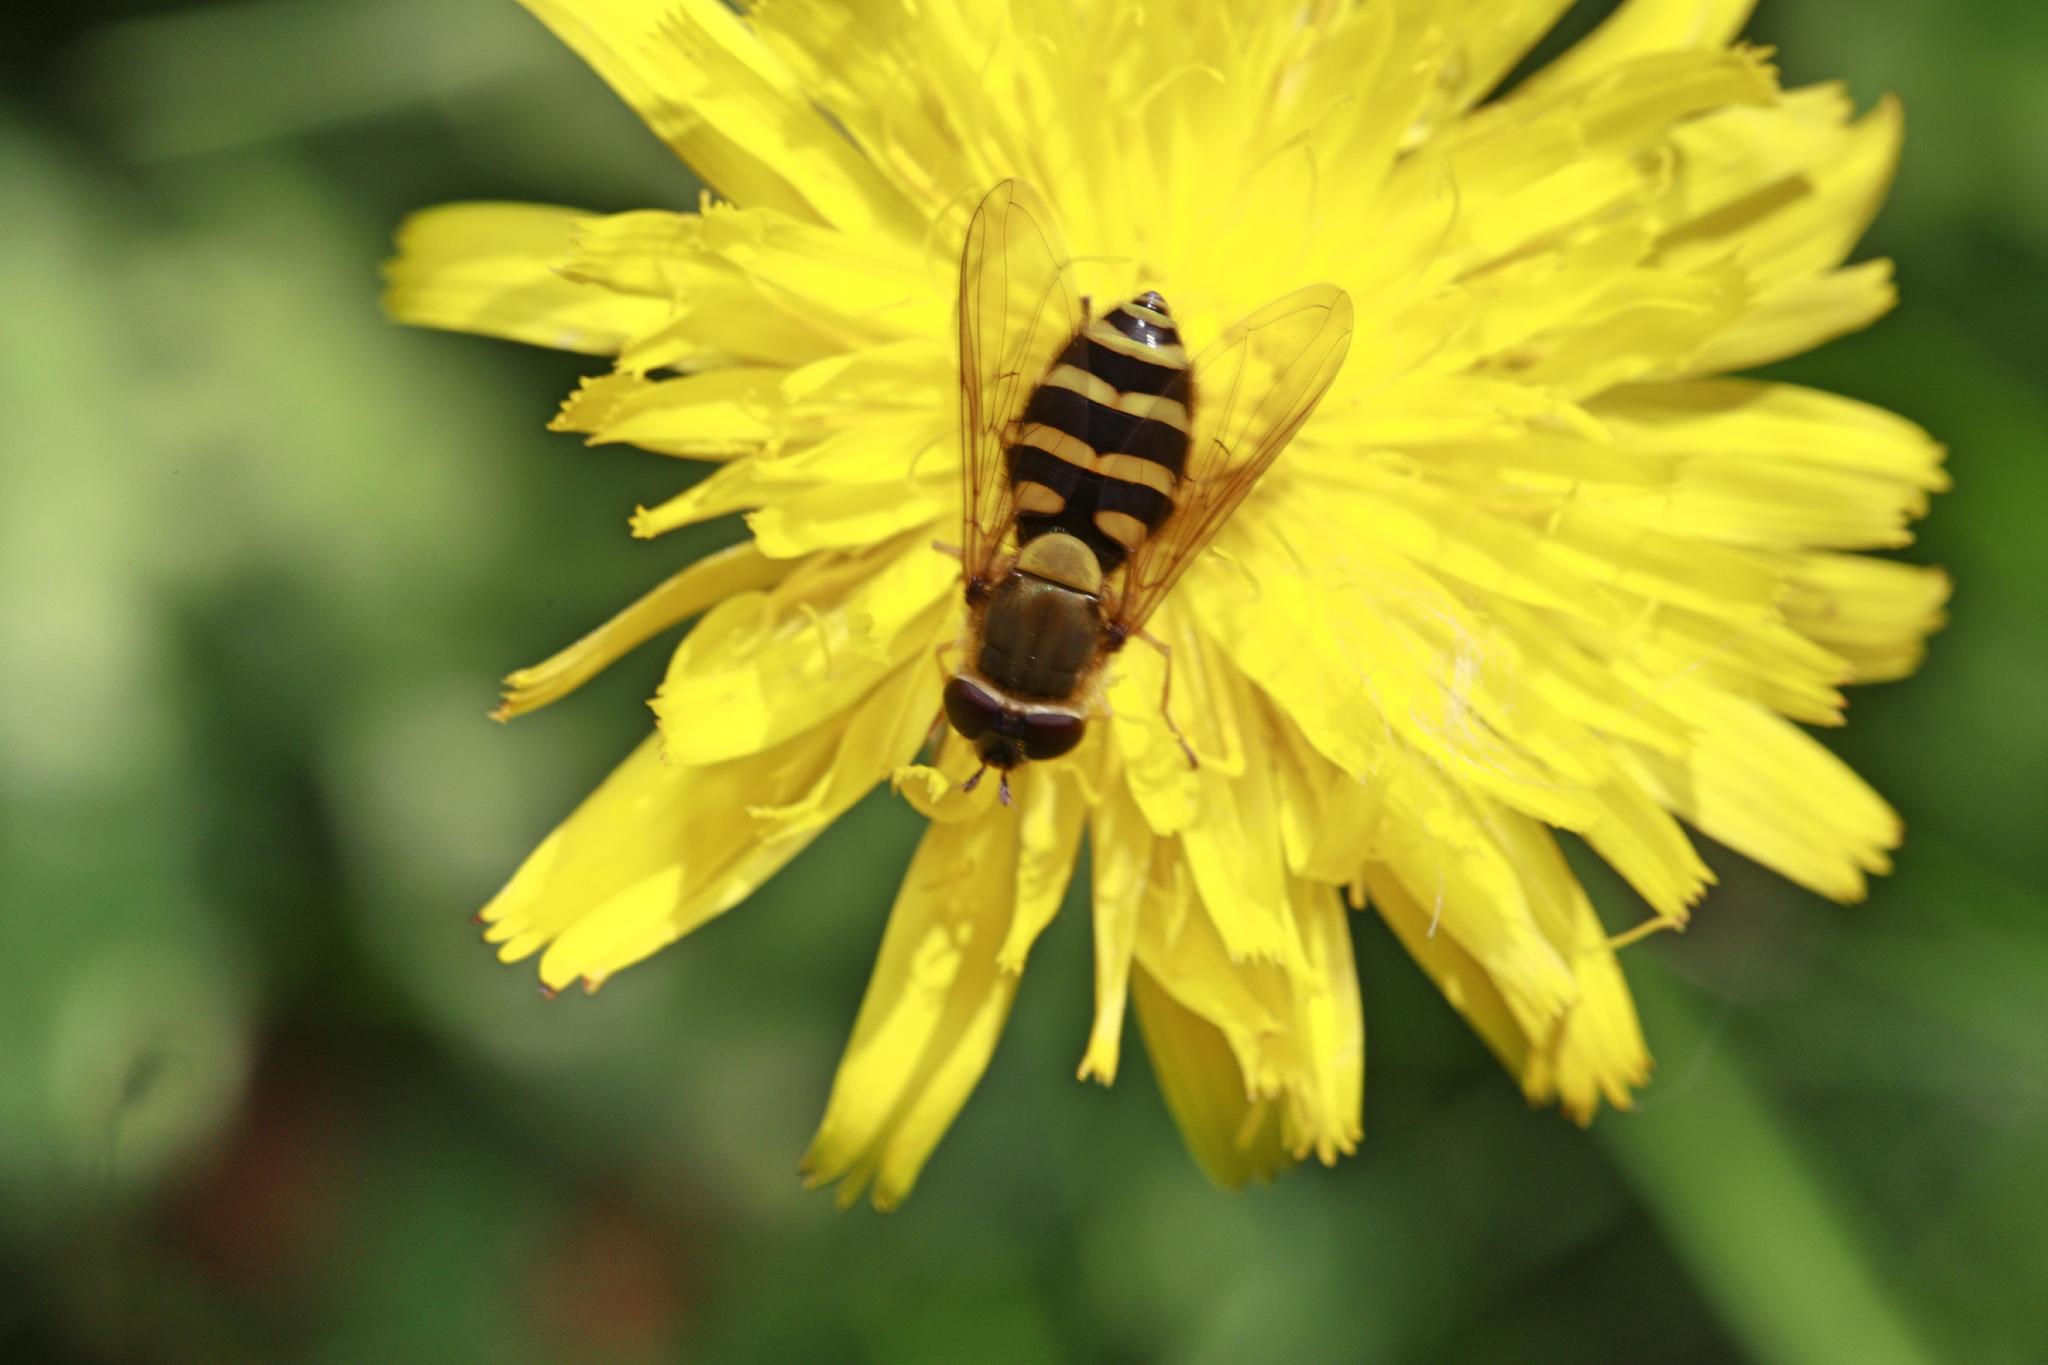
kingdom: Animalia
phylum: Arthropoda
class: Insecta
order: Diptera
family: Syrphidae
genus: Syrphus
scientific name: Syrphus
